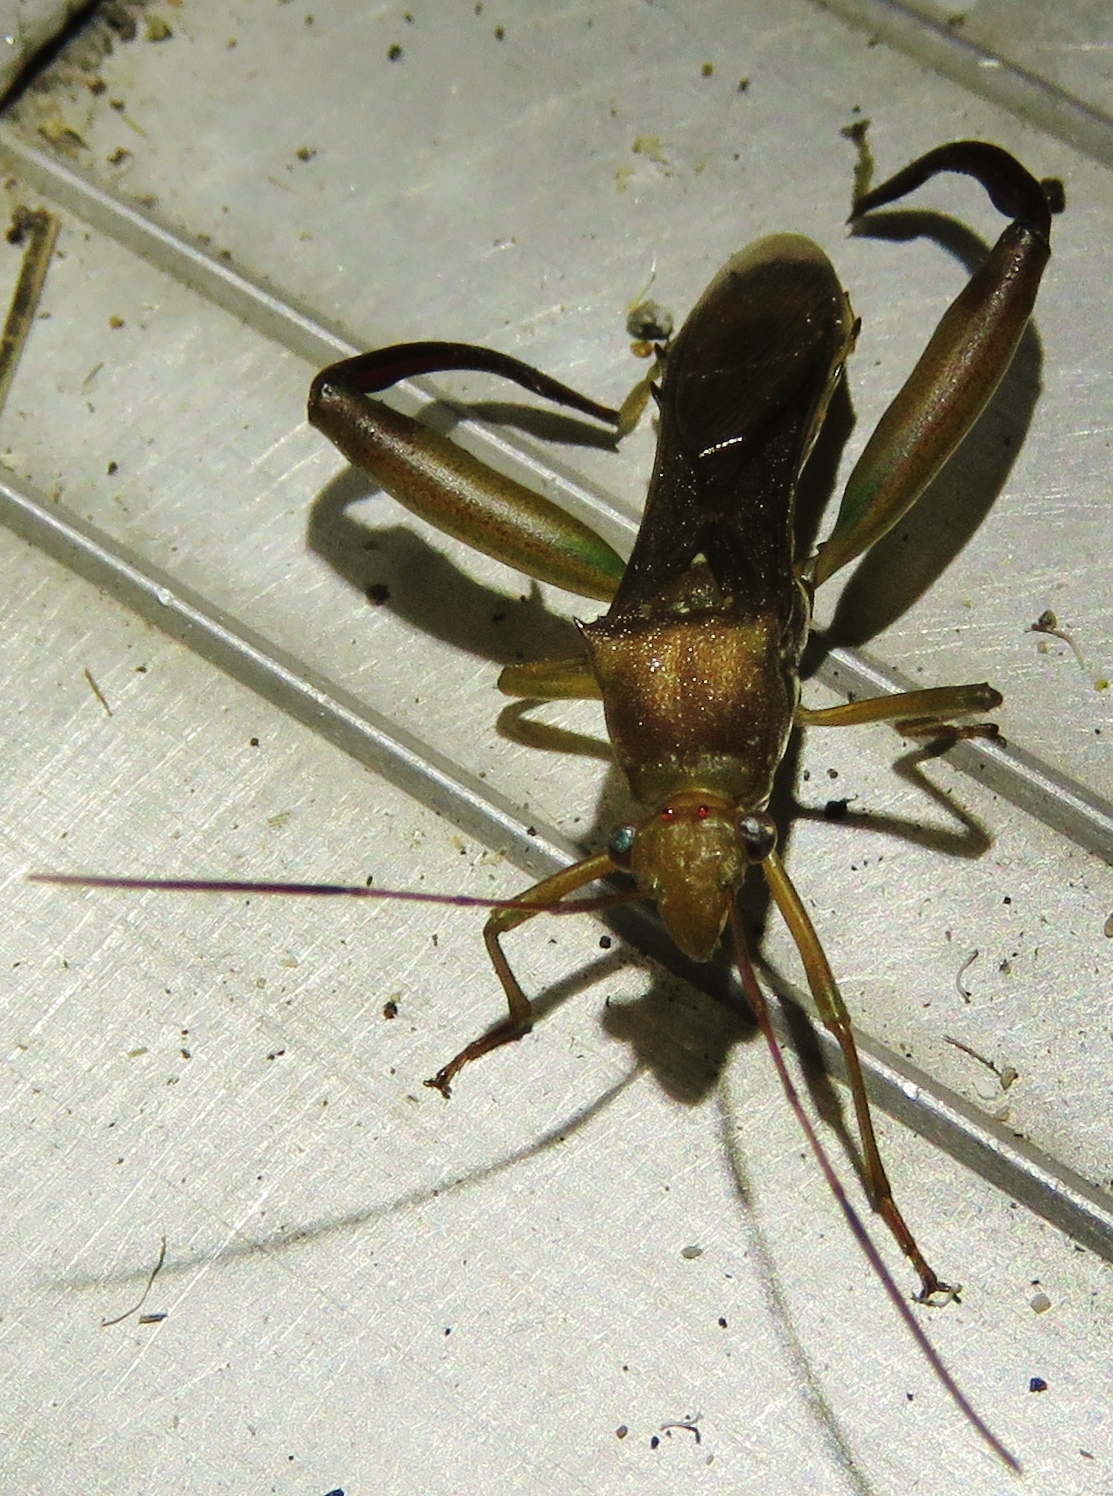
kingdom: Animalia
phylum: Arthropoda
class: Insecta
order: Hemiptera
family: Alydidae
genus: Hyalymenus
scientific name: Hyalymenus tarsatus
